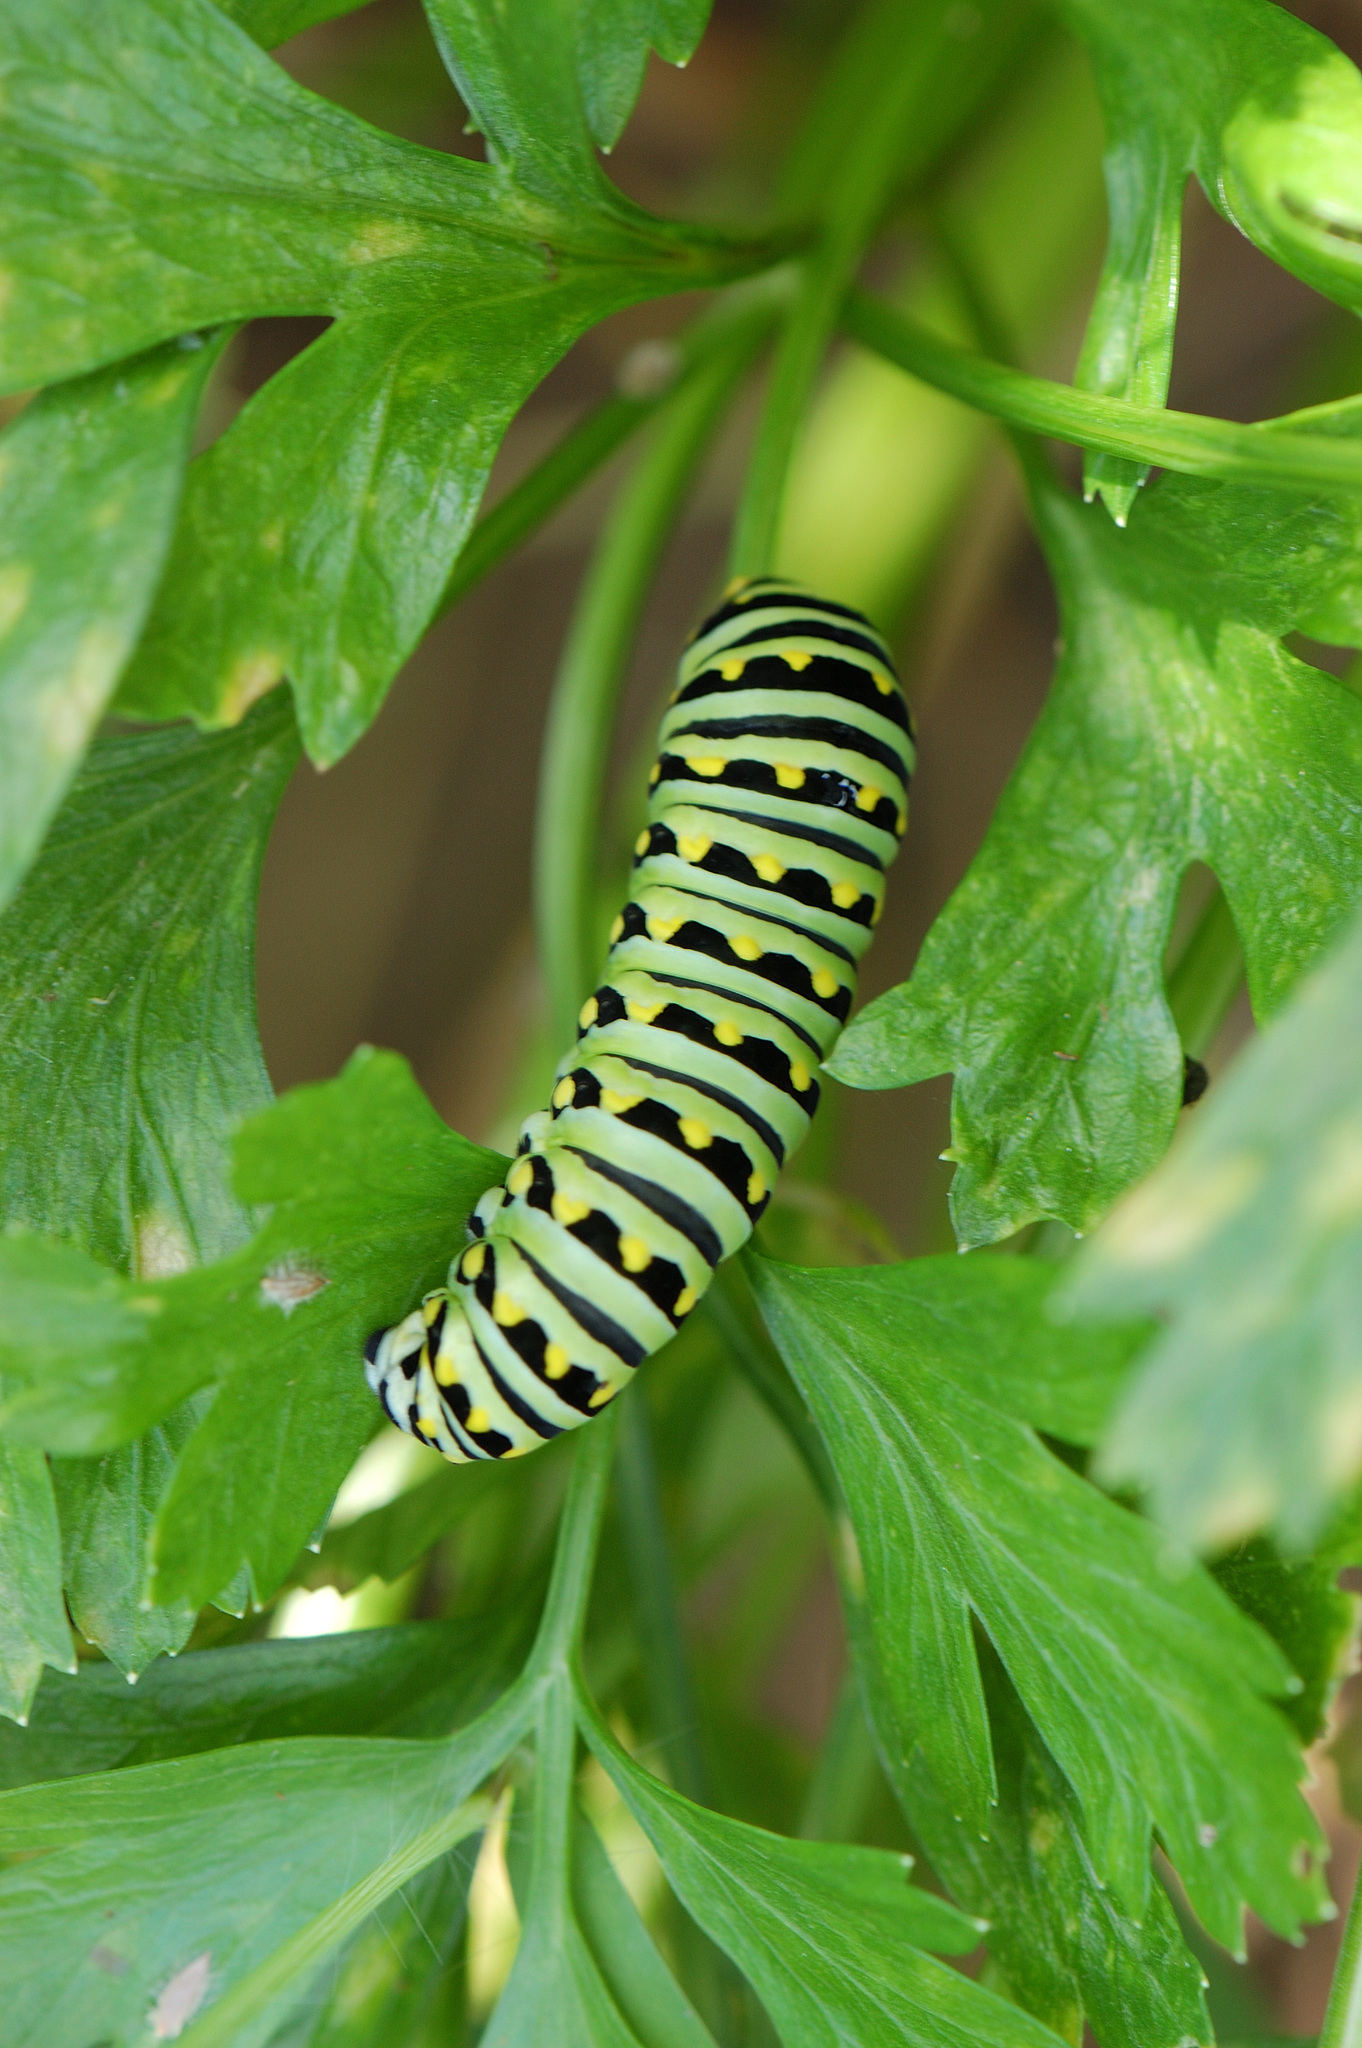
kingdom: Animalia
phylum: Arthropoda
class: Insecta
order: Lepidoptera
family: Papilionidae
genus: Papilio
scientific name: Papilio polyxenes
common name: Black swallowtail
